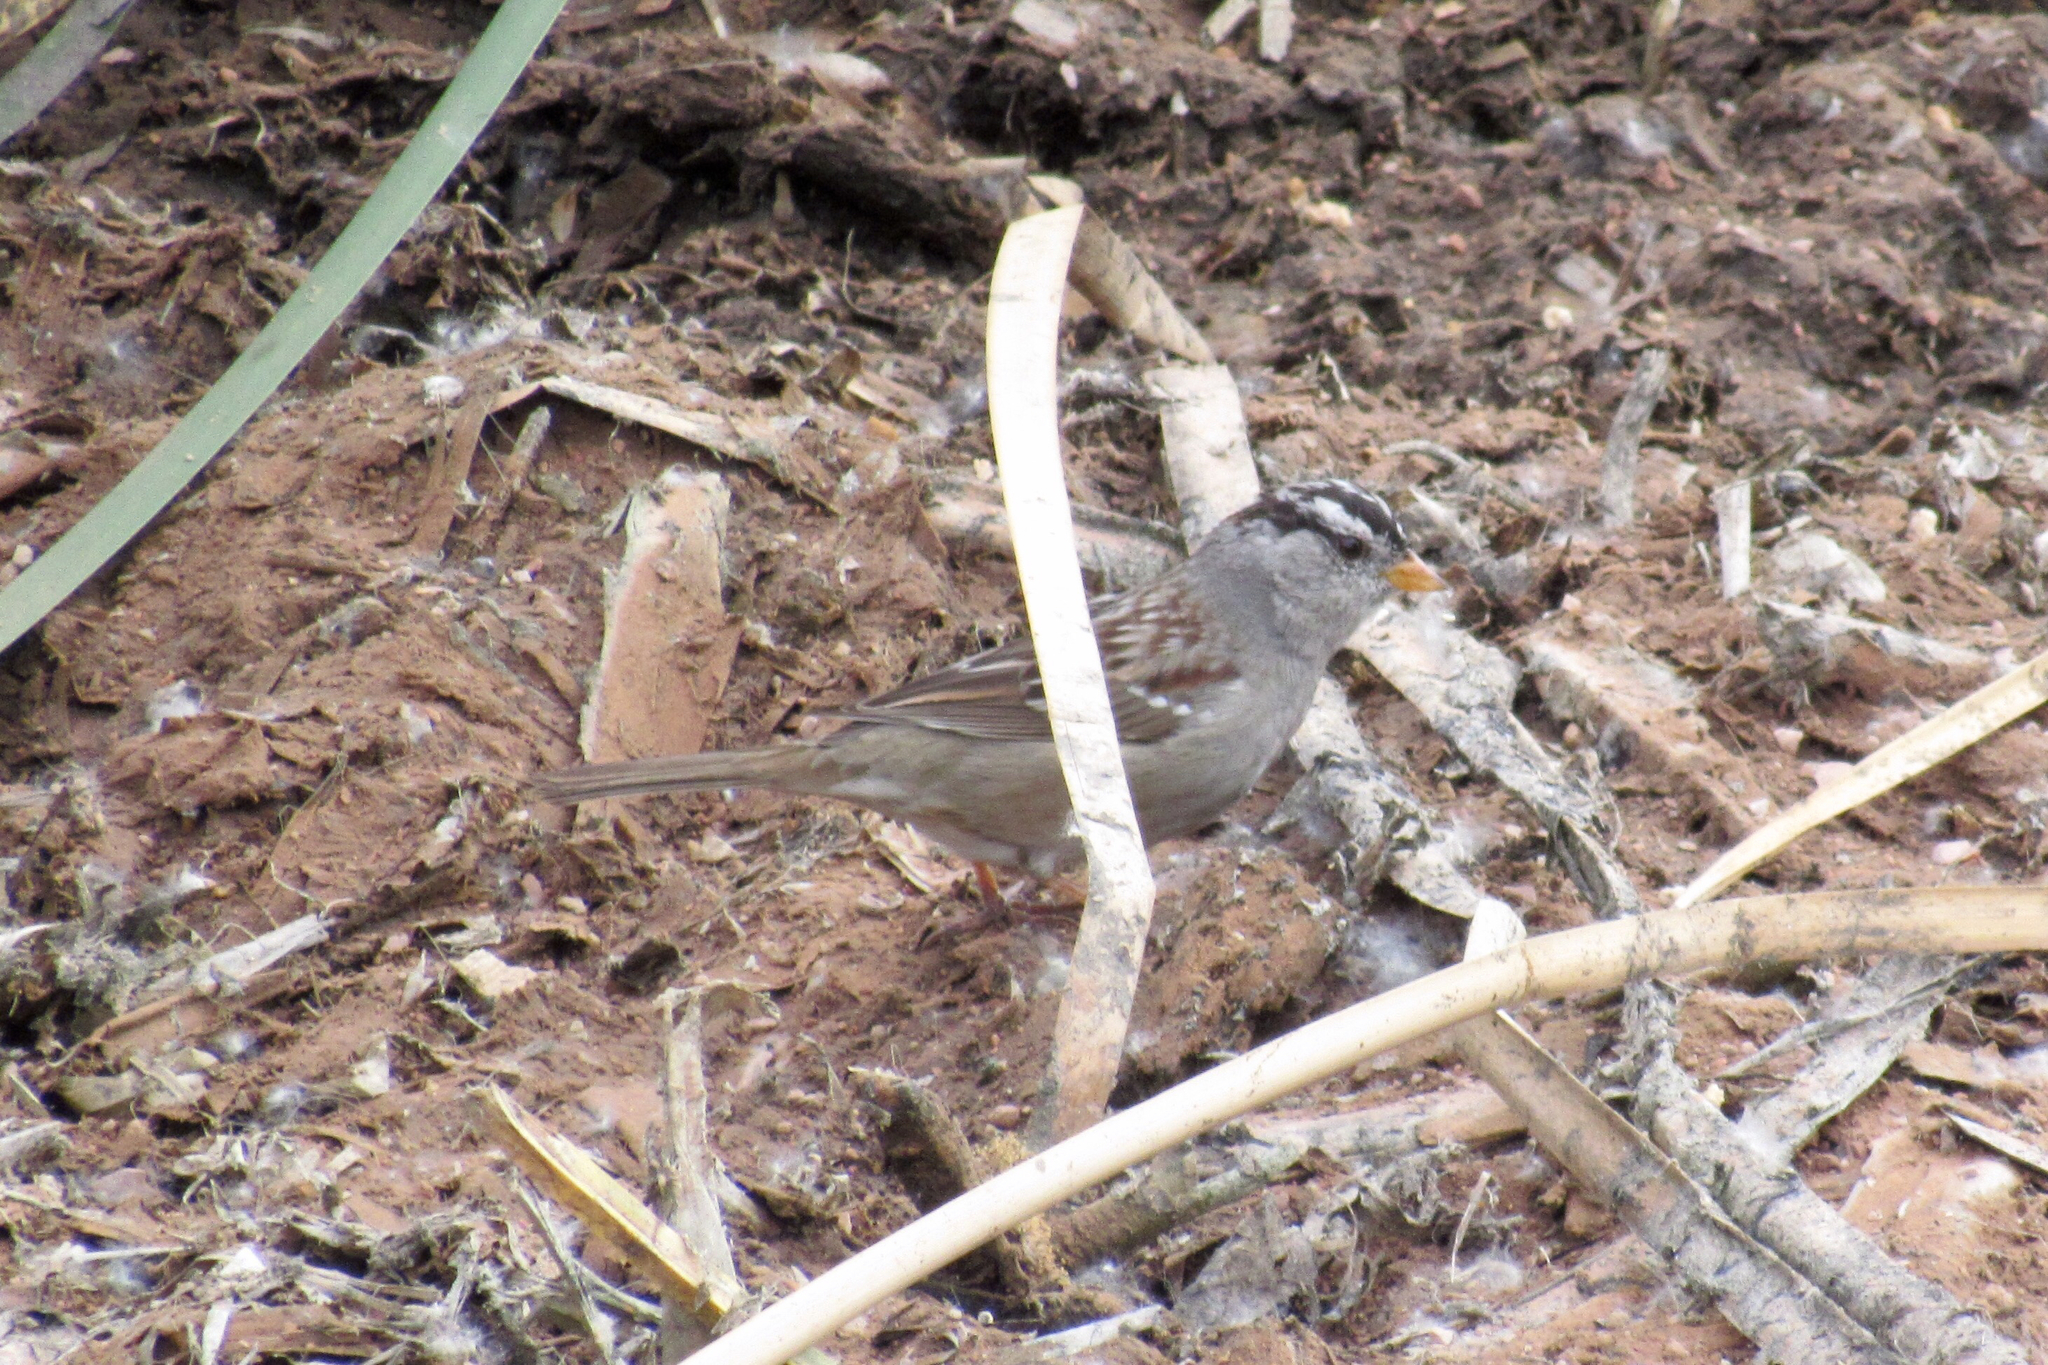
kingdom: Animalia
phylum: Chordata
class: Aves
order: Passeriformes
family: Passerellidae
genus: Zonotrichia
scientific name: Zonotrichia leucophrys
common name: White-crowned sparrow
